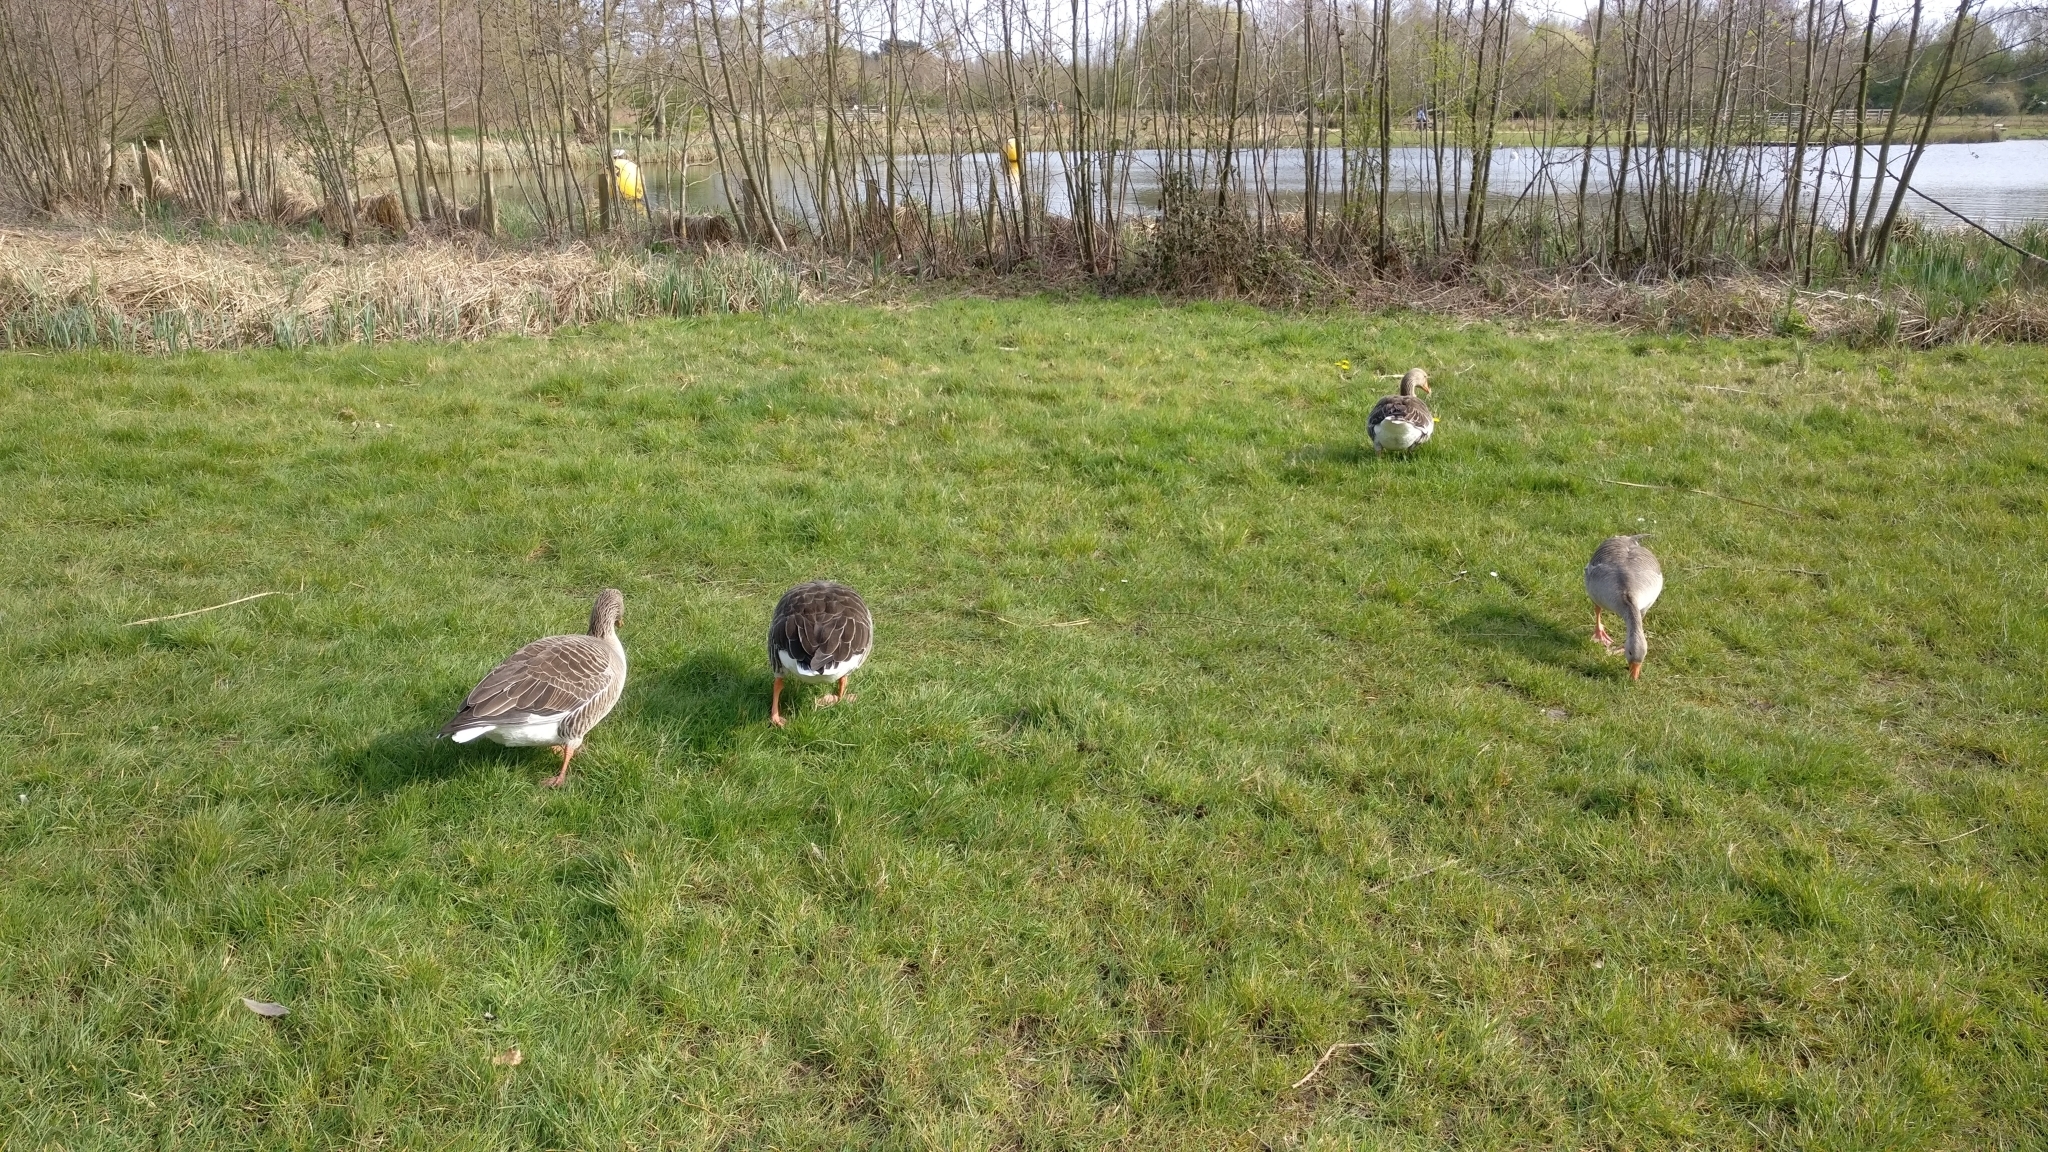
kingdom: Animalia
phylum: Chordata
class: Aves
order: Anseriformes
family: Anatidae
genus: Anser
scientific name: Anser anser
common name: Greylag goose
